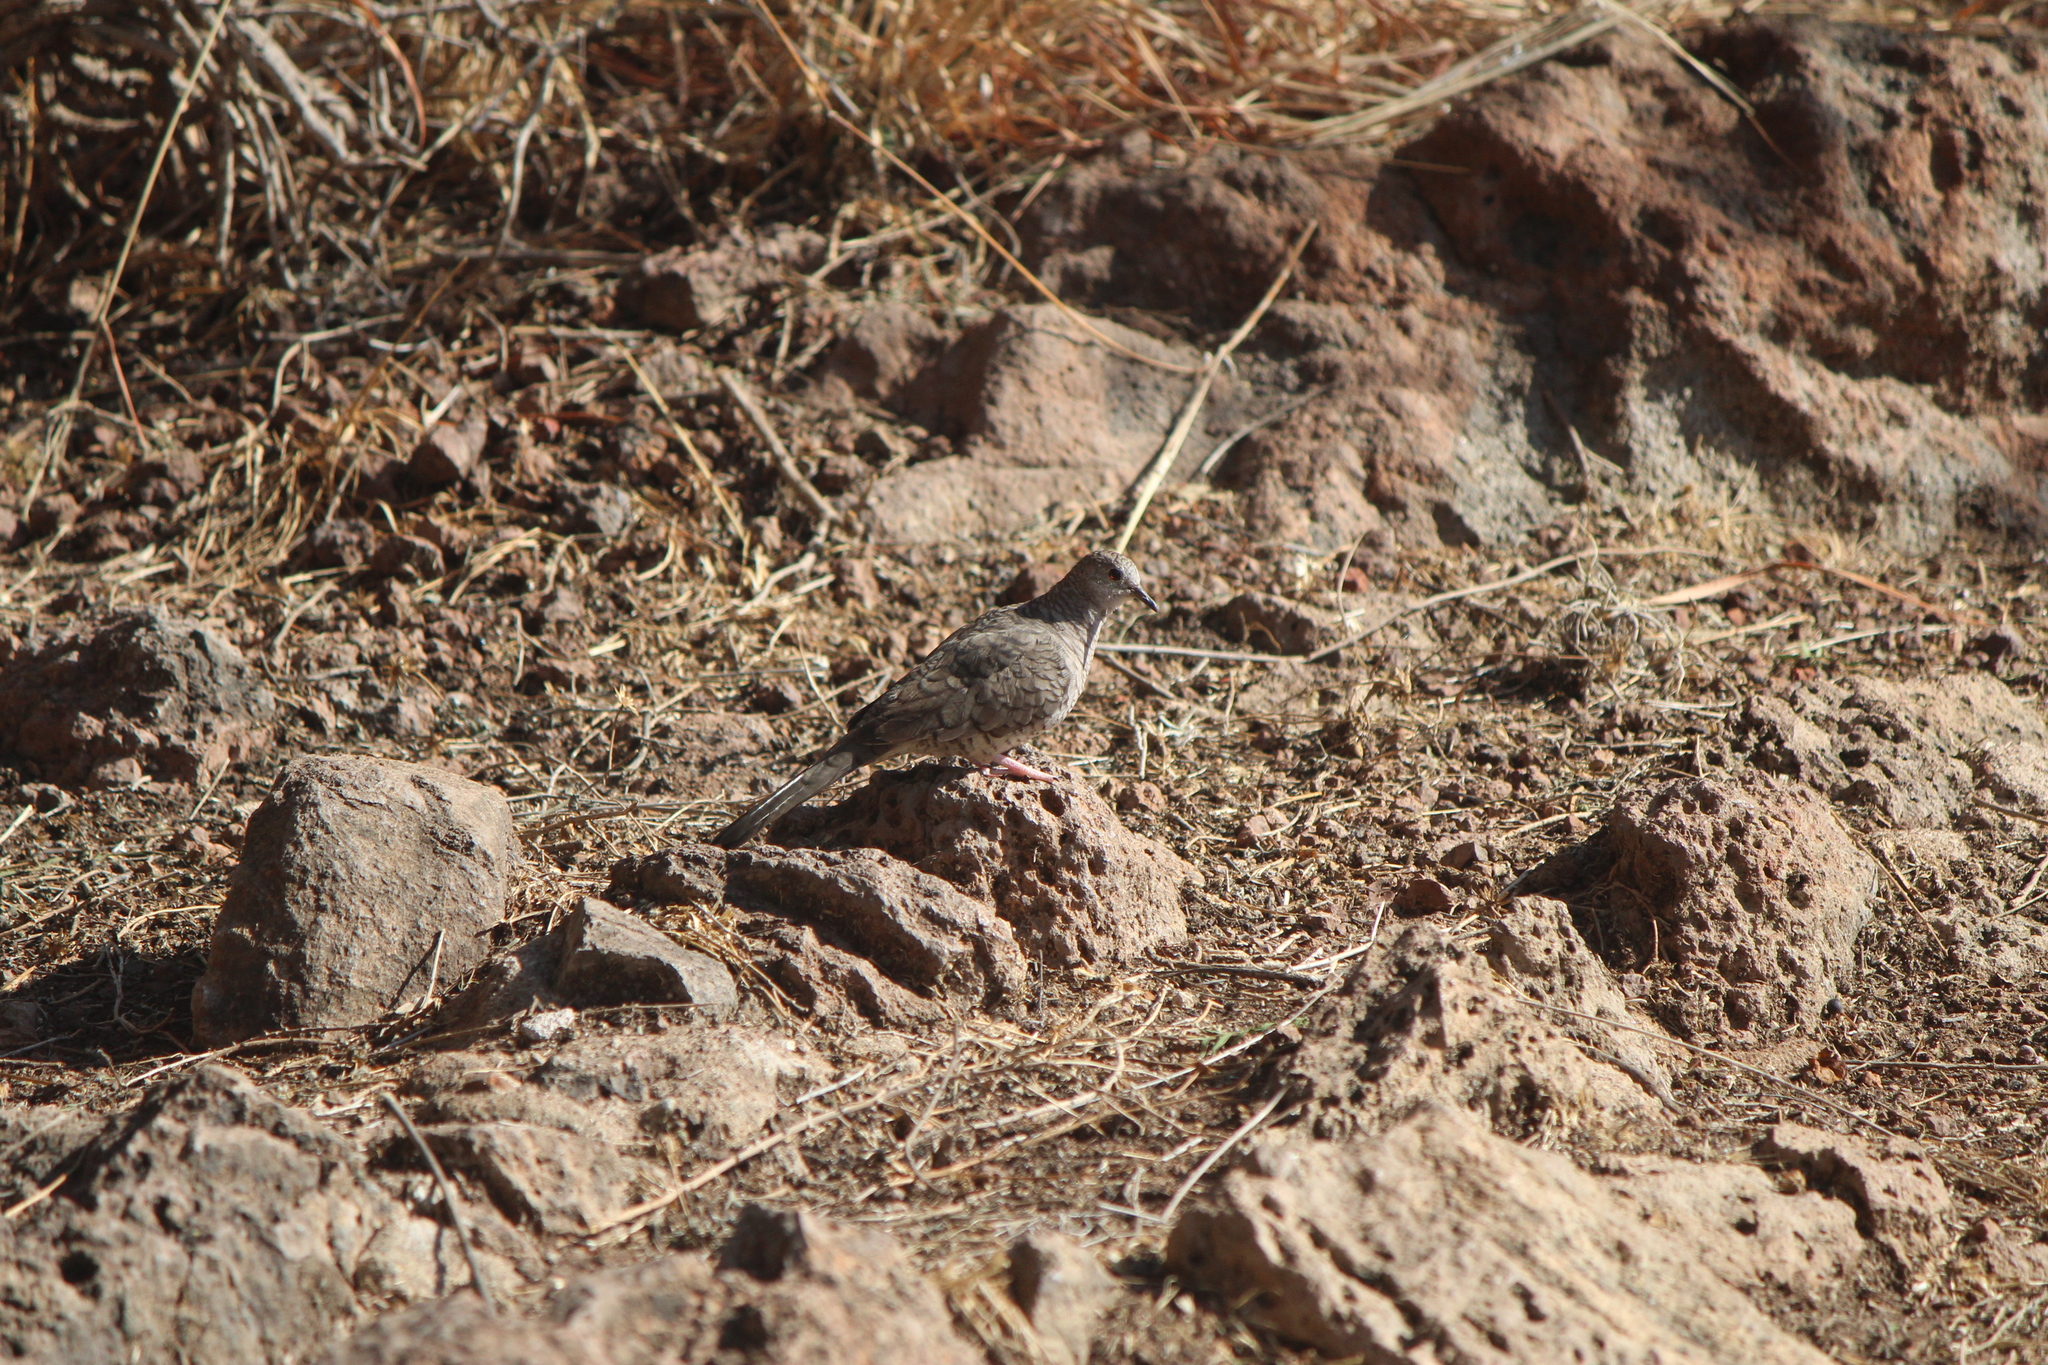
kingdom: Animalia
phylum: Chordata
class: Aves
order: Columbiformes
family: Columbidae
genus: Columbina
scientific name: Columbina inca
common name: Inca dove
